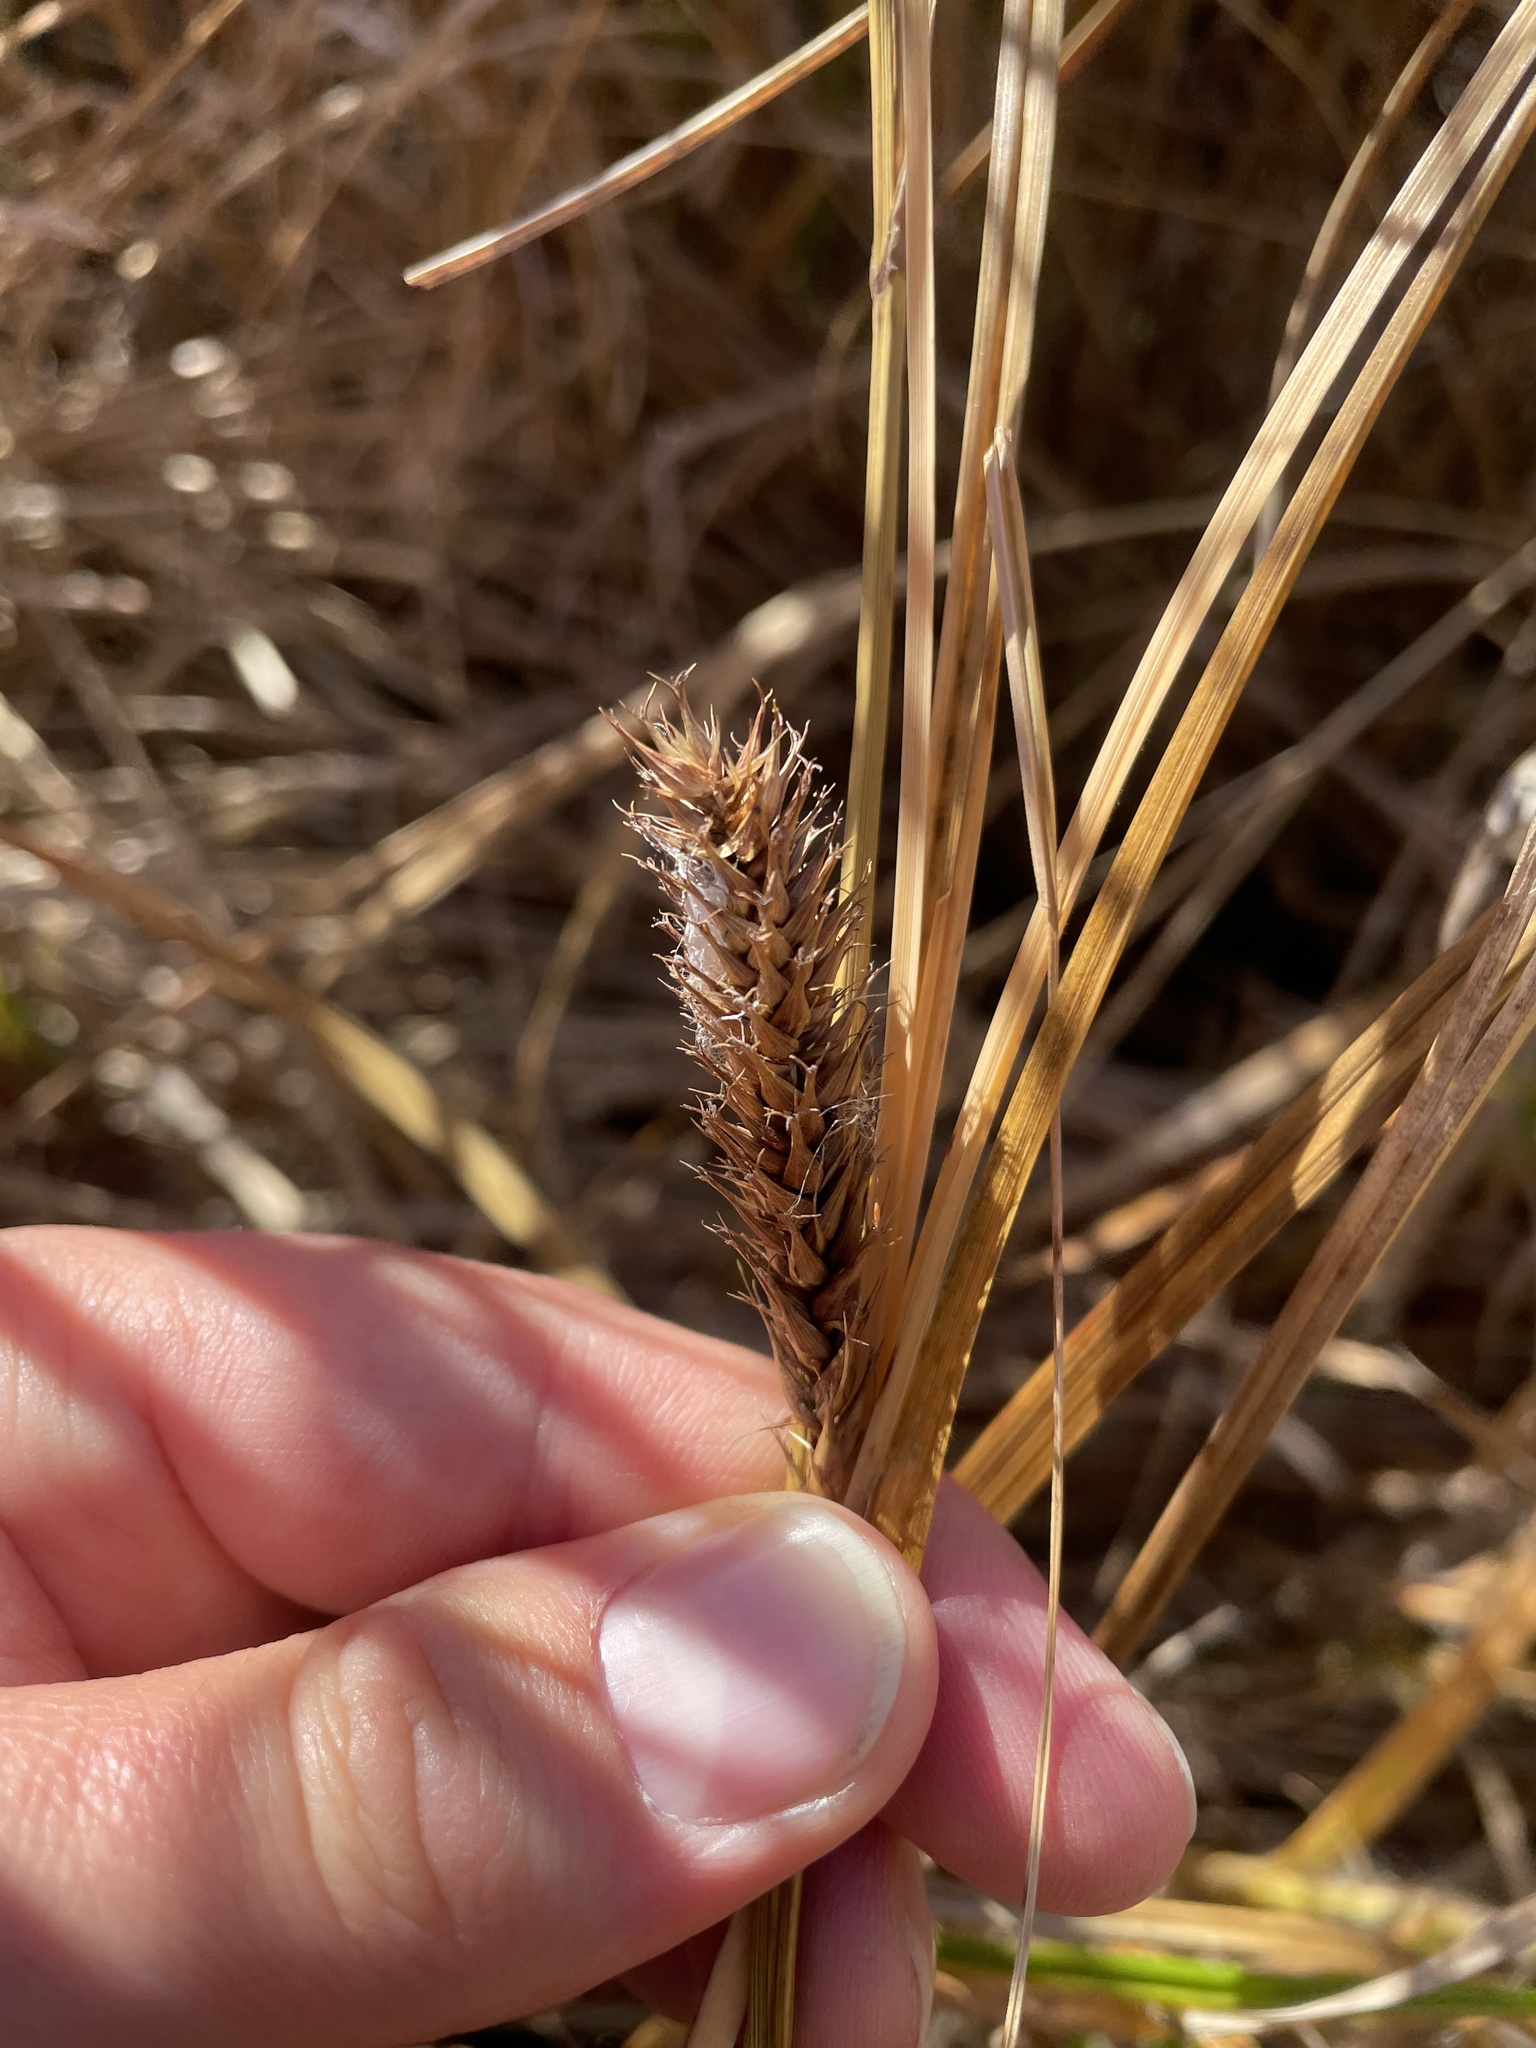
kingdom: Plantae
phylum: Tracheophyta
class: Liliopsida
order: Poales
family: Cyperaceae
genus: Carex
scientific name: Carex atherodes
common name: Wheat sedge
